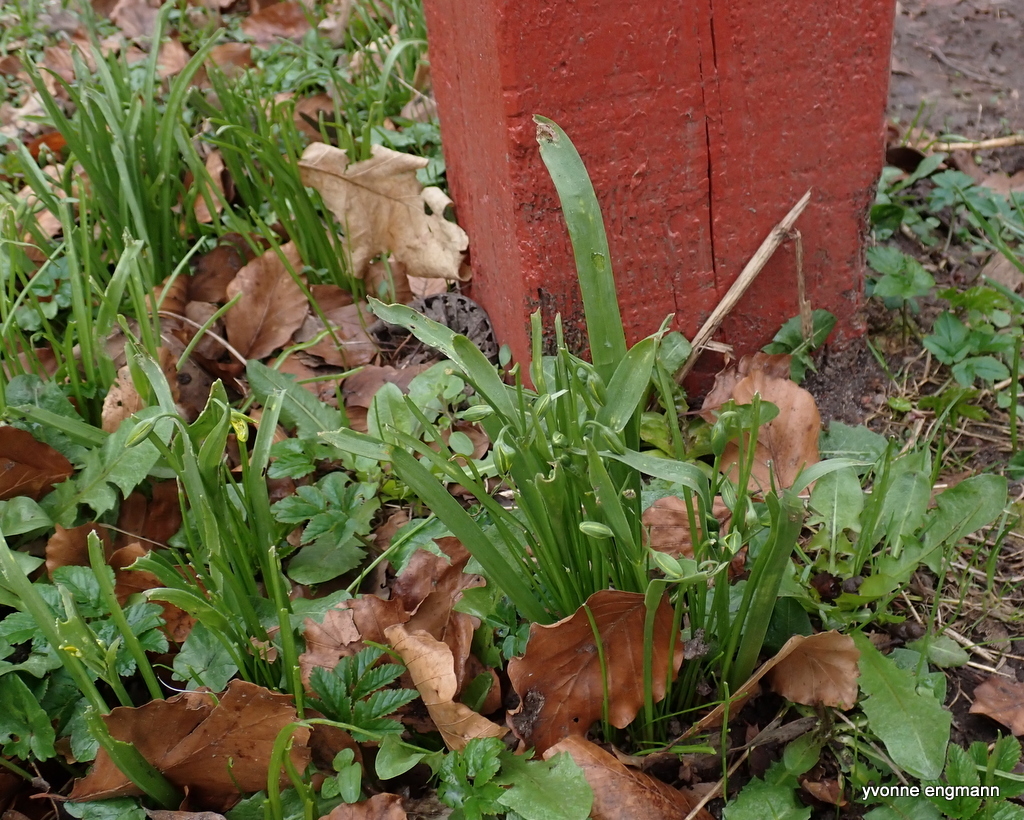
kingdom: Plantae
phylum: Tracheophyta
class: Liliopsida
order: Liliales
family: Liliaceae
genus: Gagea
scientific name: Gagea lutea
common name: Yellow star-of-bethlehem
